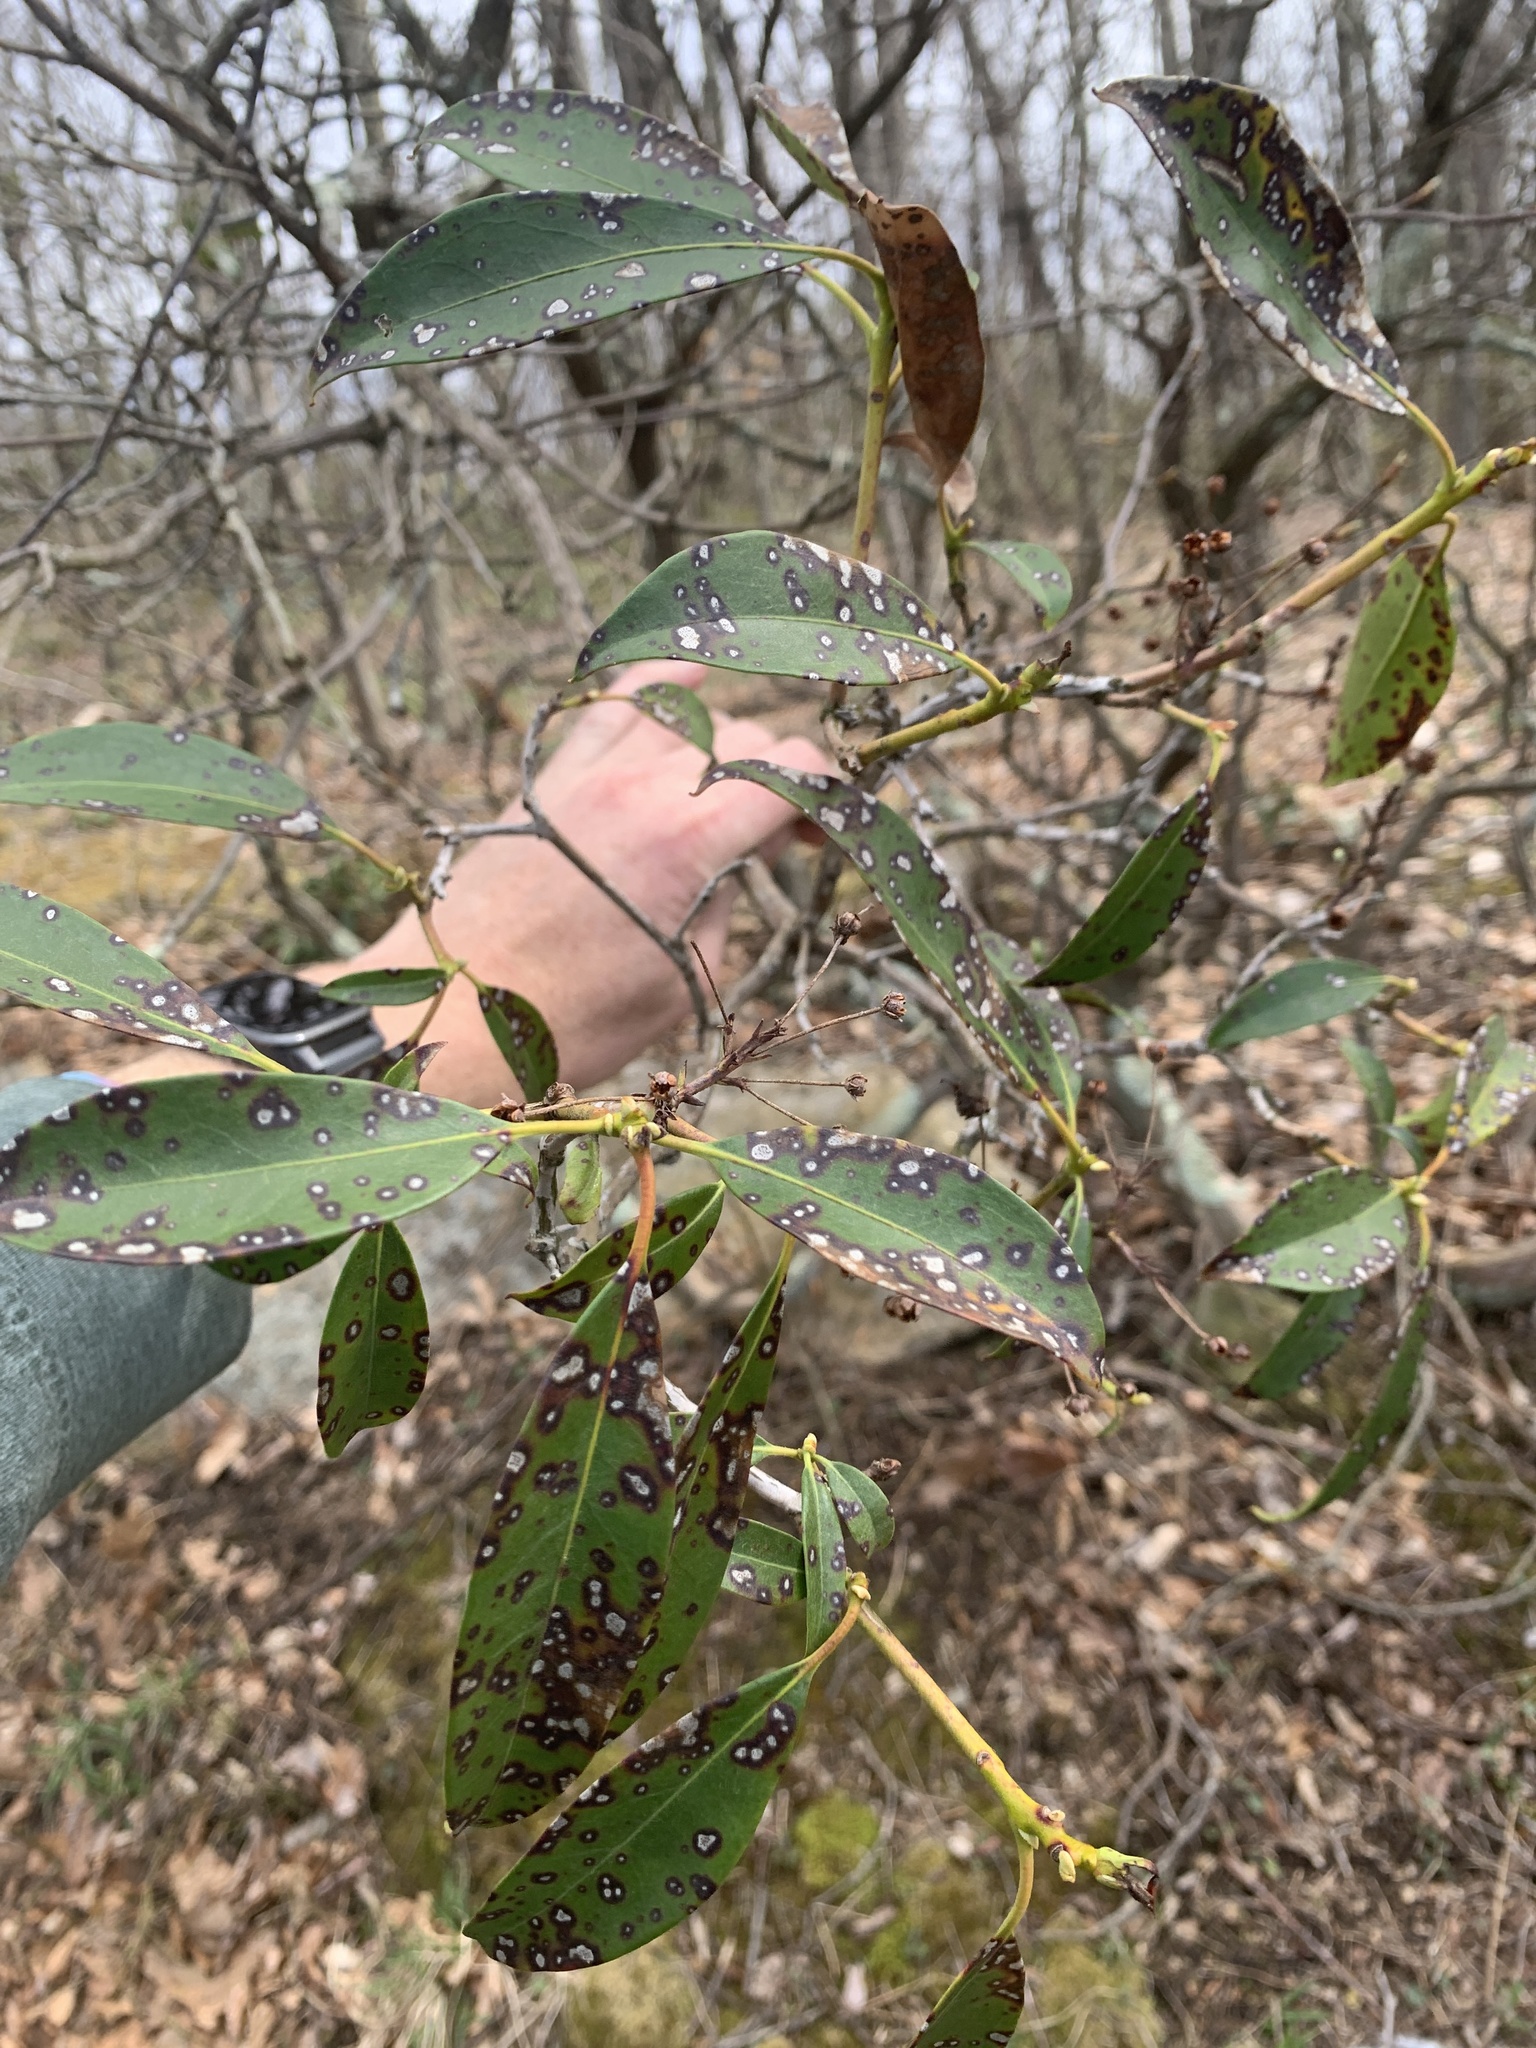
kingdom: Plantae
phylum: Tracheophyta
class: Magnoliopsida
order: Ericales
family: Ericaceae
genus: Kalmia
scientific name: Kalmia latifolia
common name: Mountain-laurel
